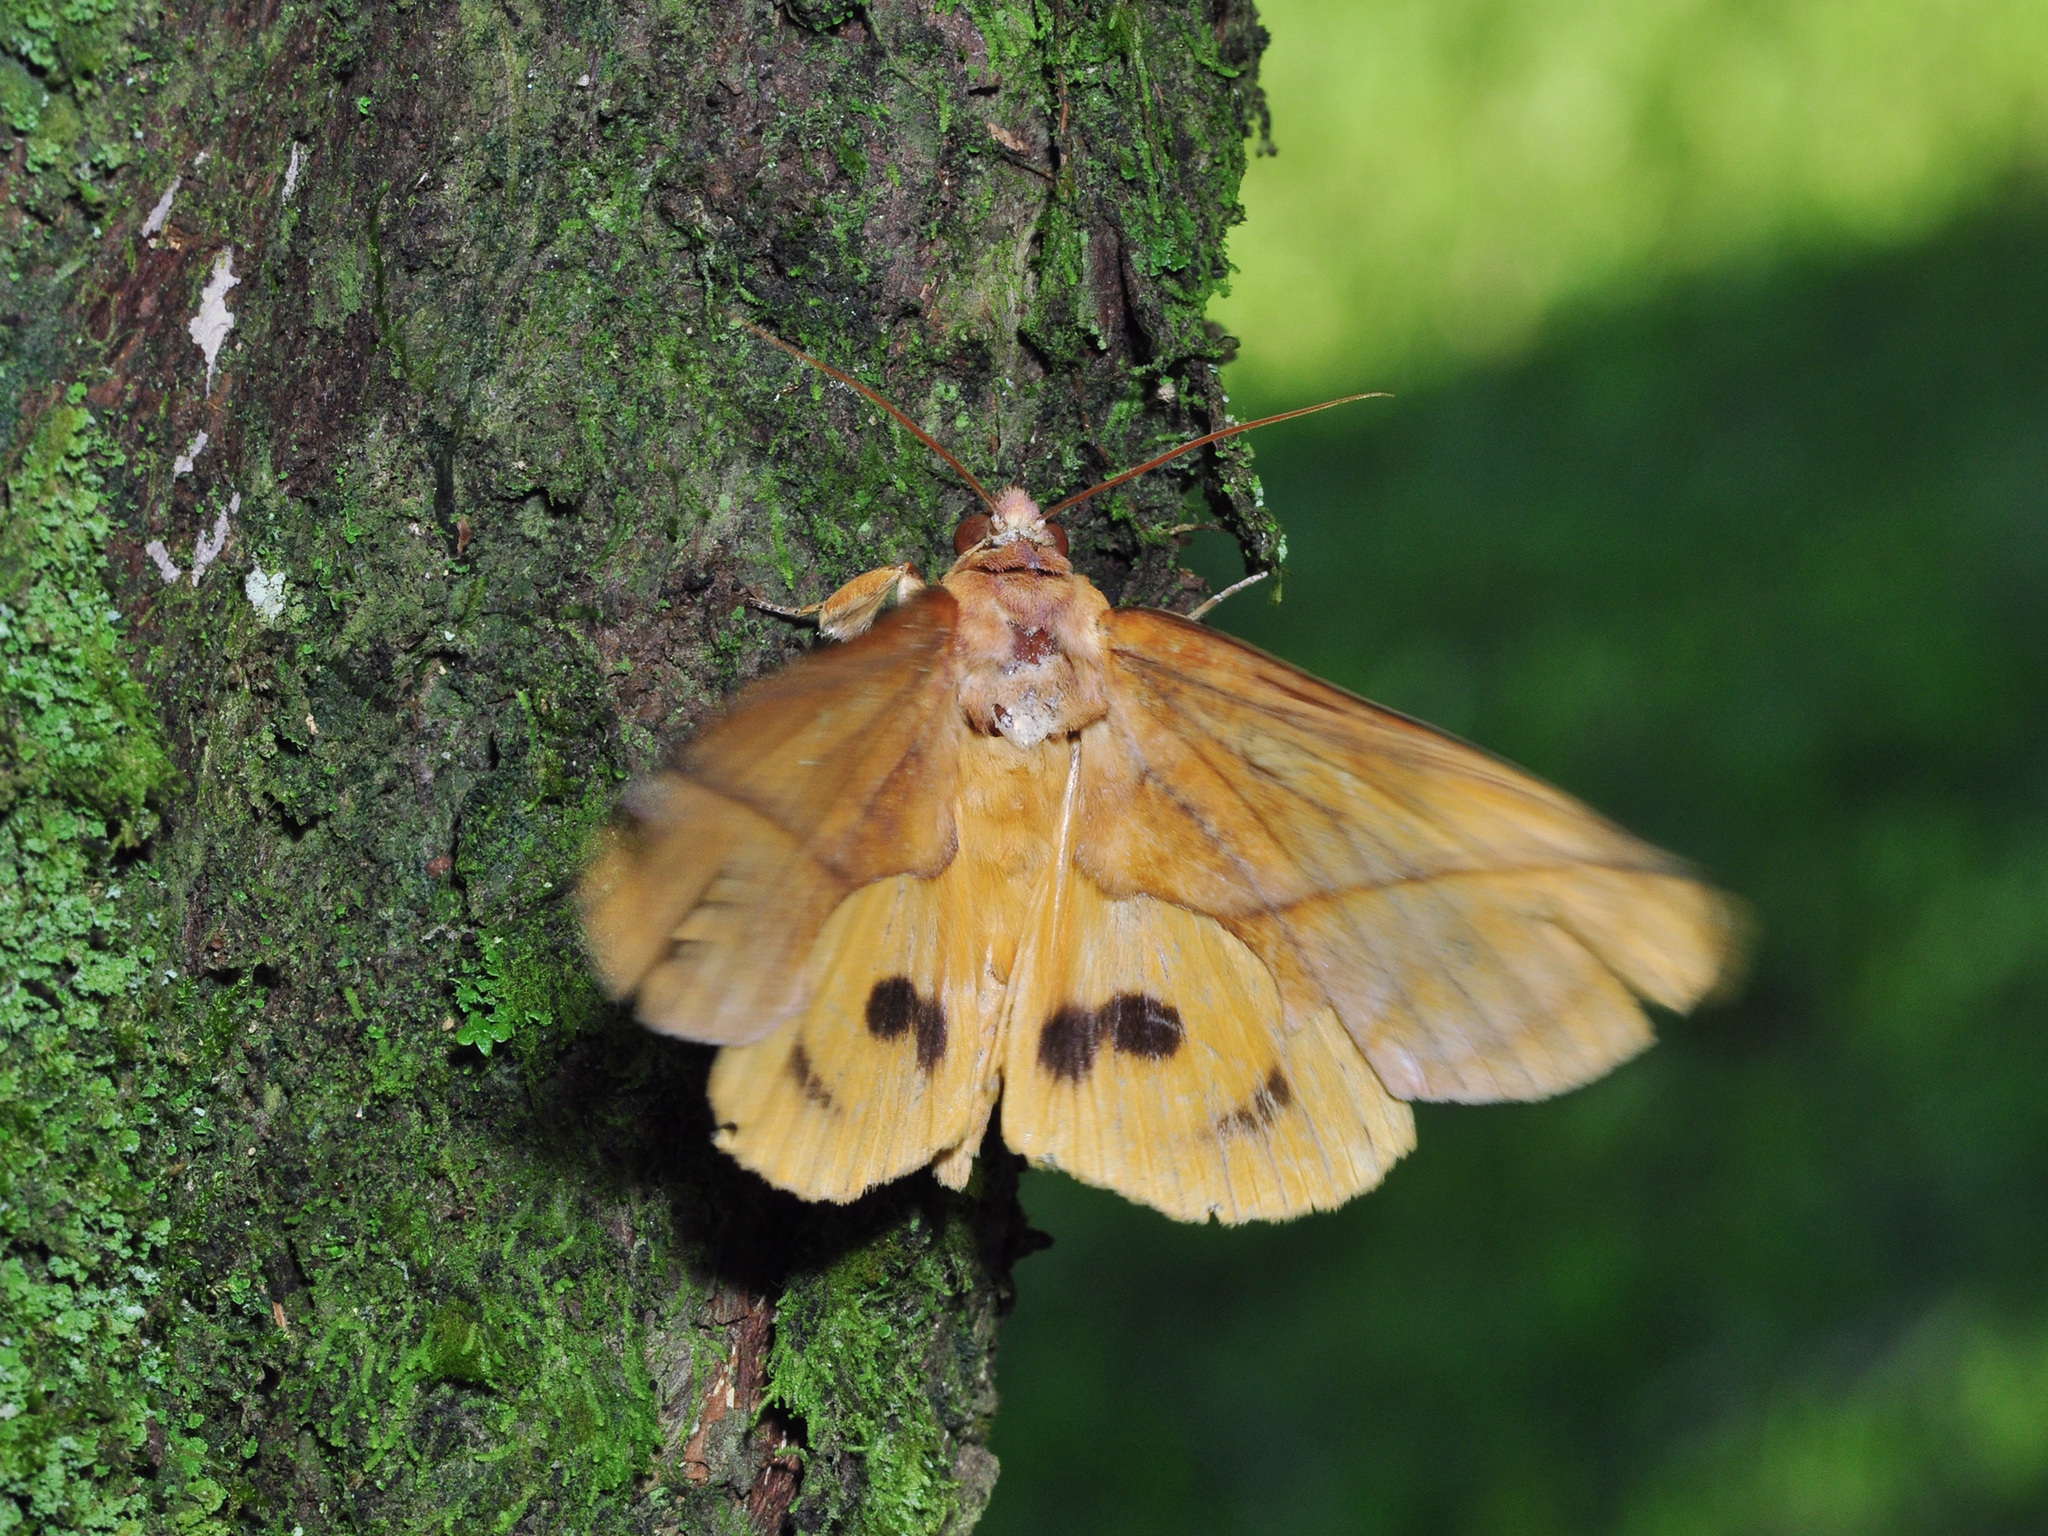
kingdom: Animalia
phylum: Arthropoda
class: Insecta
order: Lepidoptera
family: Erebidae
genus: Eudocima
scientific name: Eudocima aurantia
